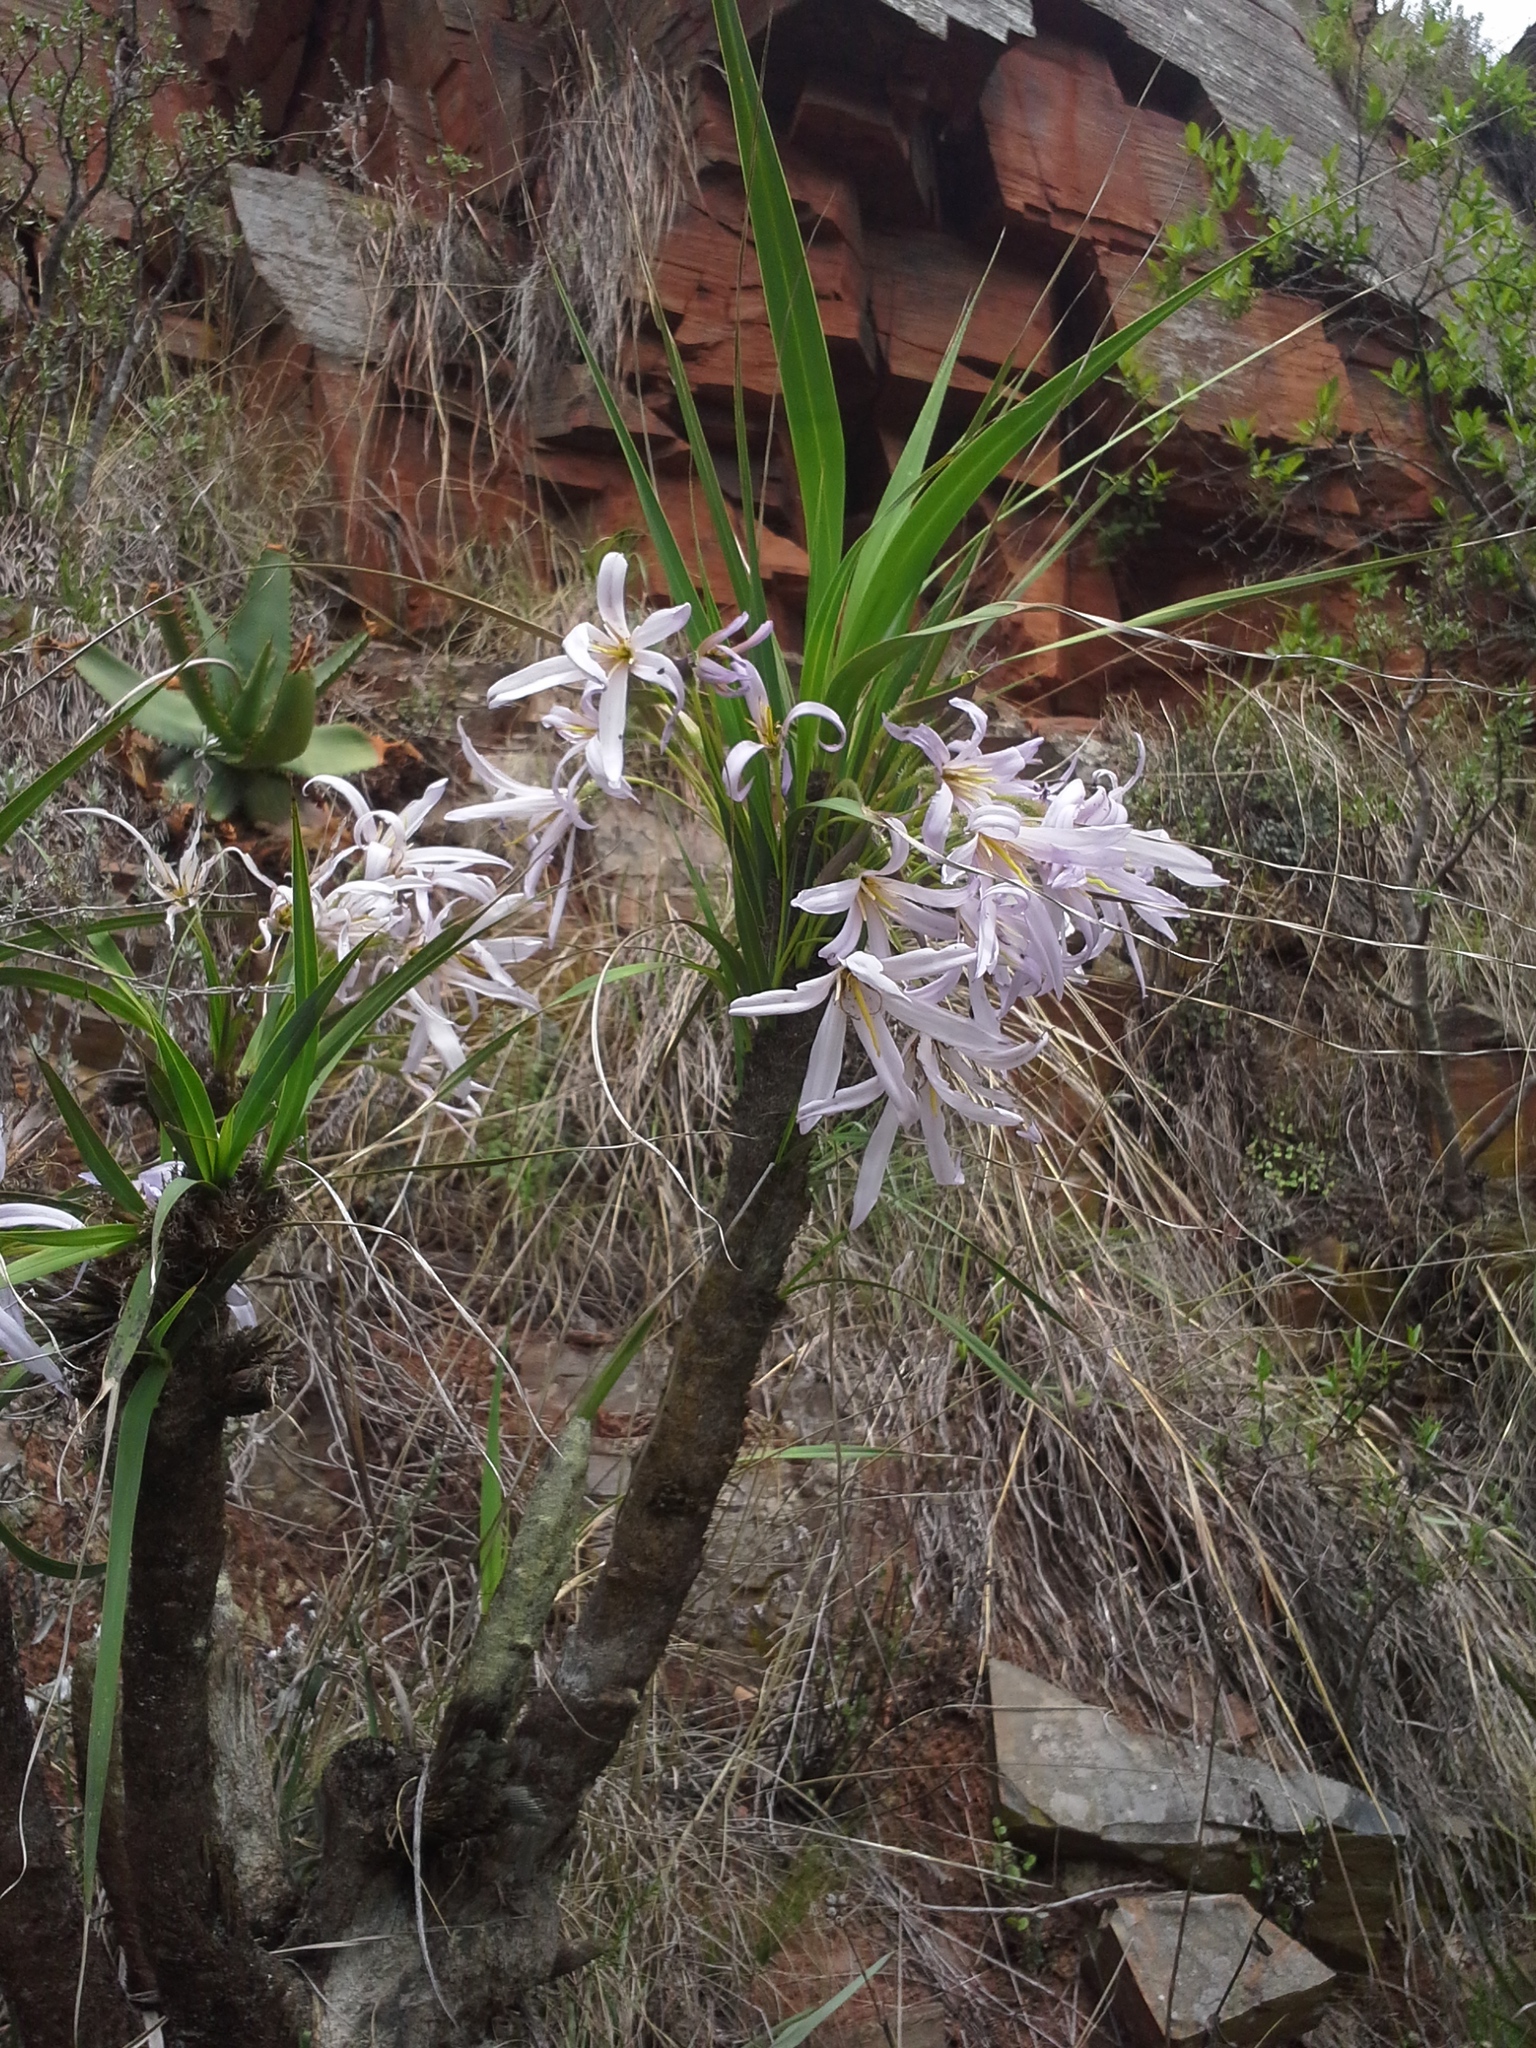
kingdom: Plantae
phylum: Tracheophyta
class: Liliopsida
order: Pandanales
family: Velloziaceae
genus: Xerophyta
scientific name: Xerophyta retinervis
